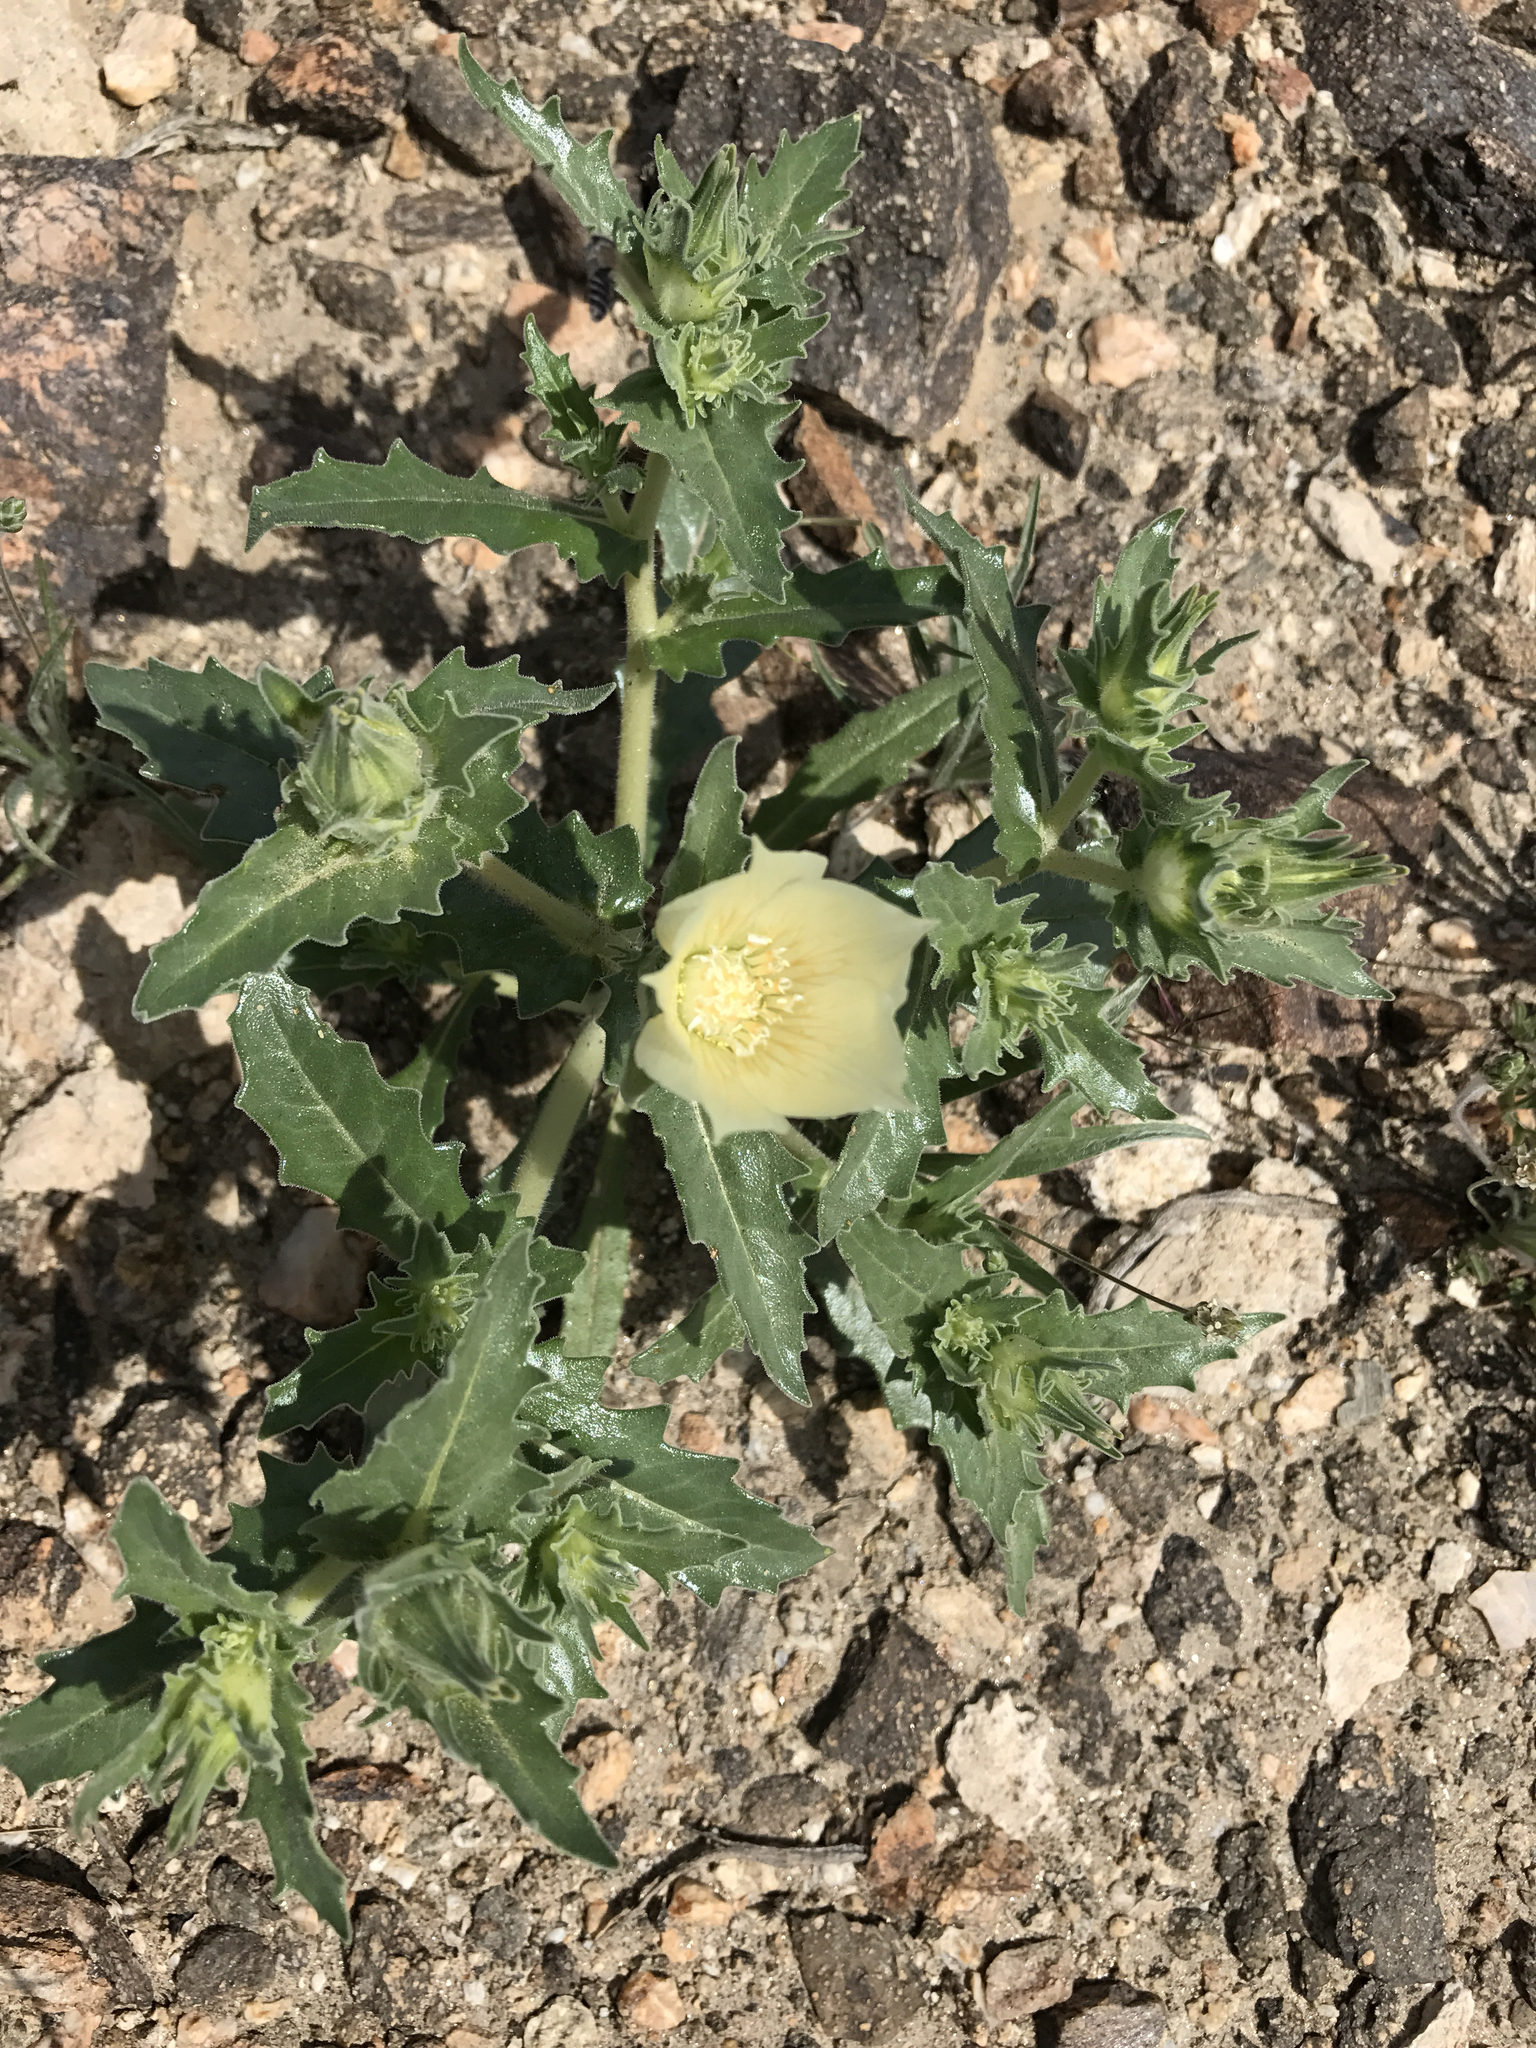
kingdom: Plantae
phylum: Tracheophyta
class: Magnoliopsida
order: Cornales
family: Loasaceae
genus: Mentzelia
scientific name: Mentzelia involucrata
